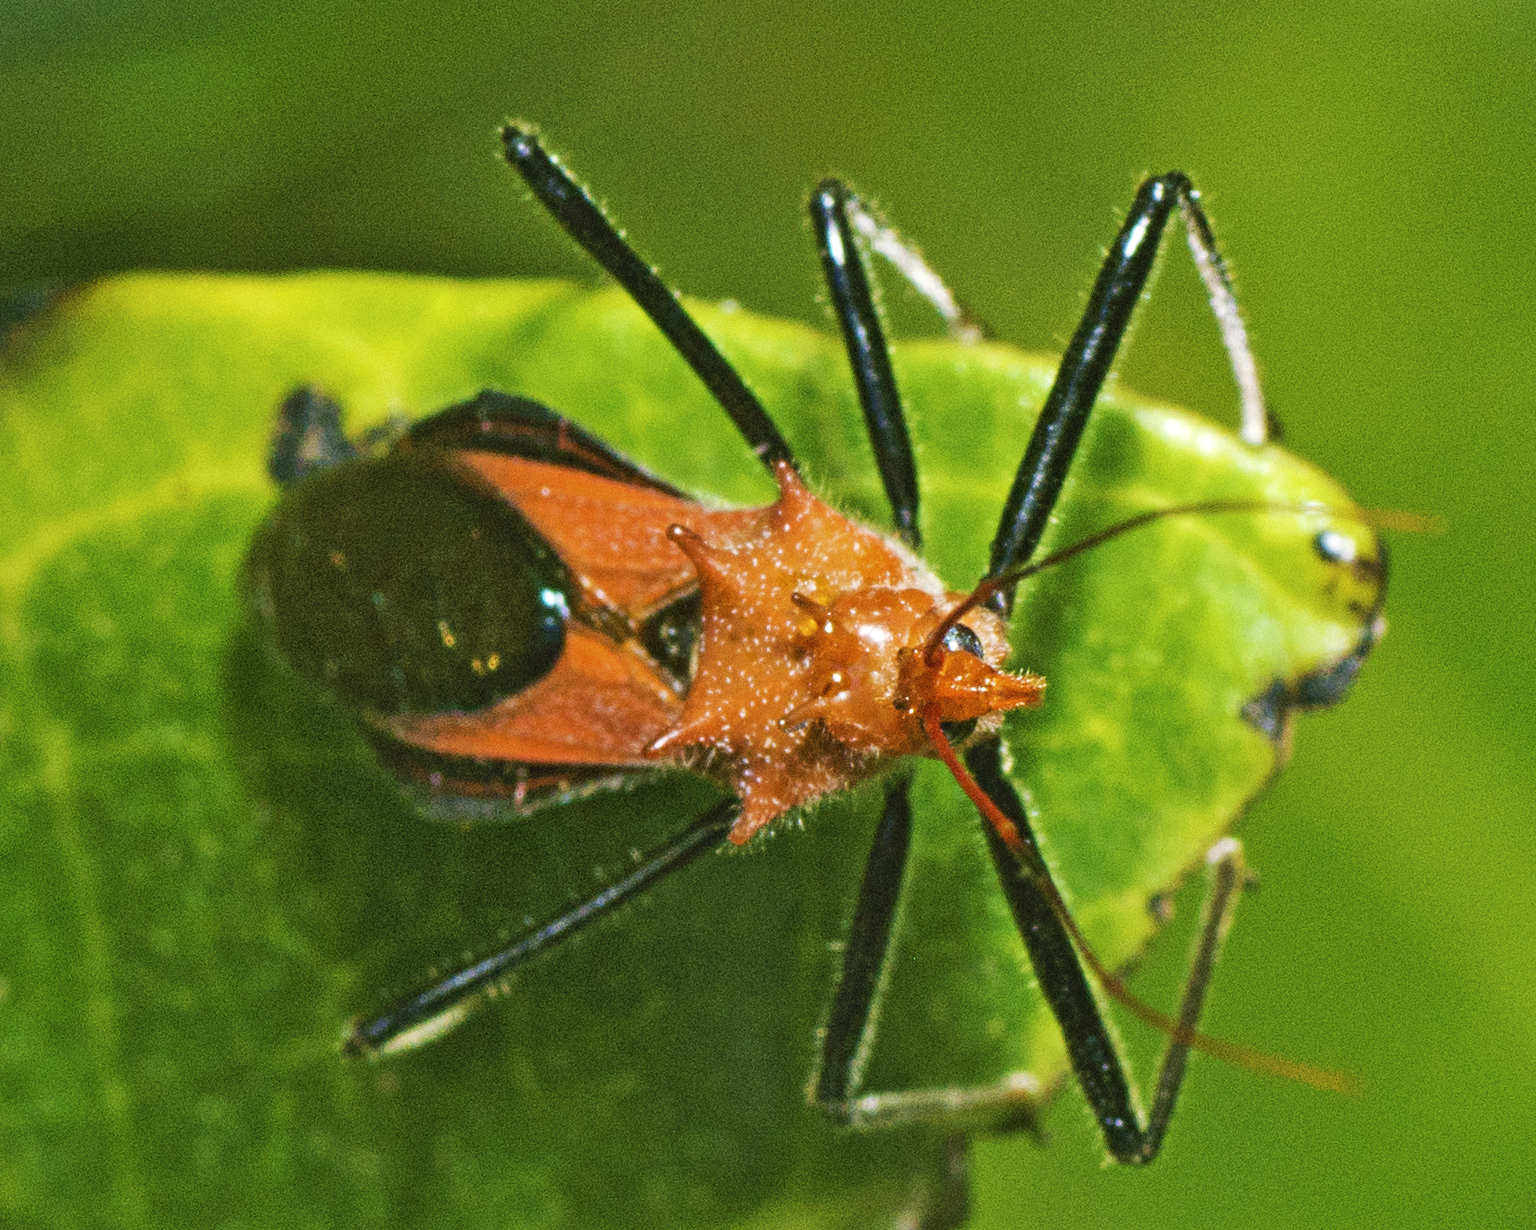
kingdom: Animalia
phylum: Arthropoda
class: Insecta
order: Hemiptera
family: Reduviidae
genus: Gminatus
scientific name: Gminatus wallengreni
